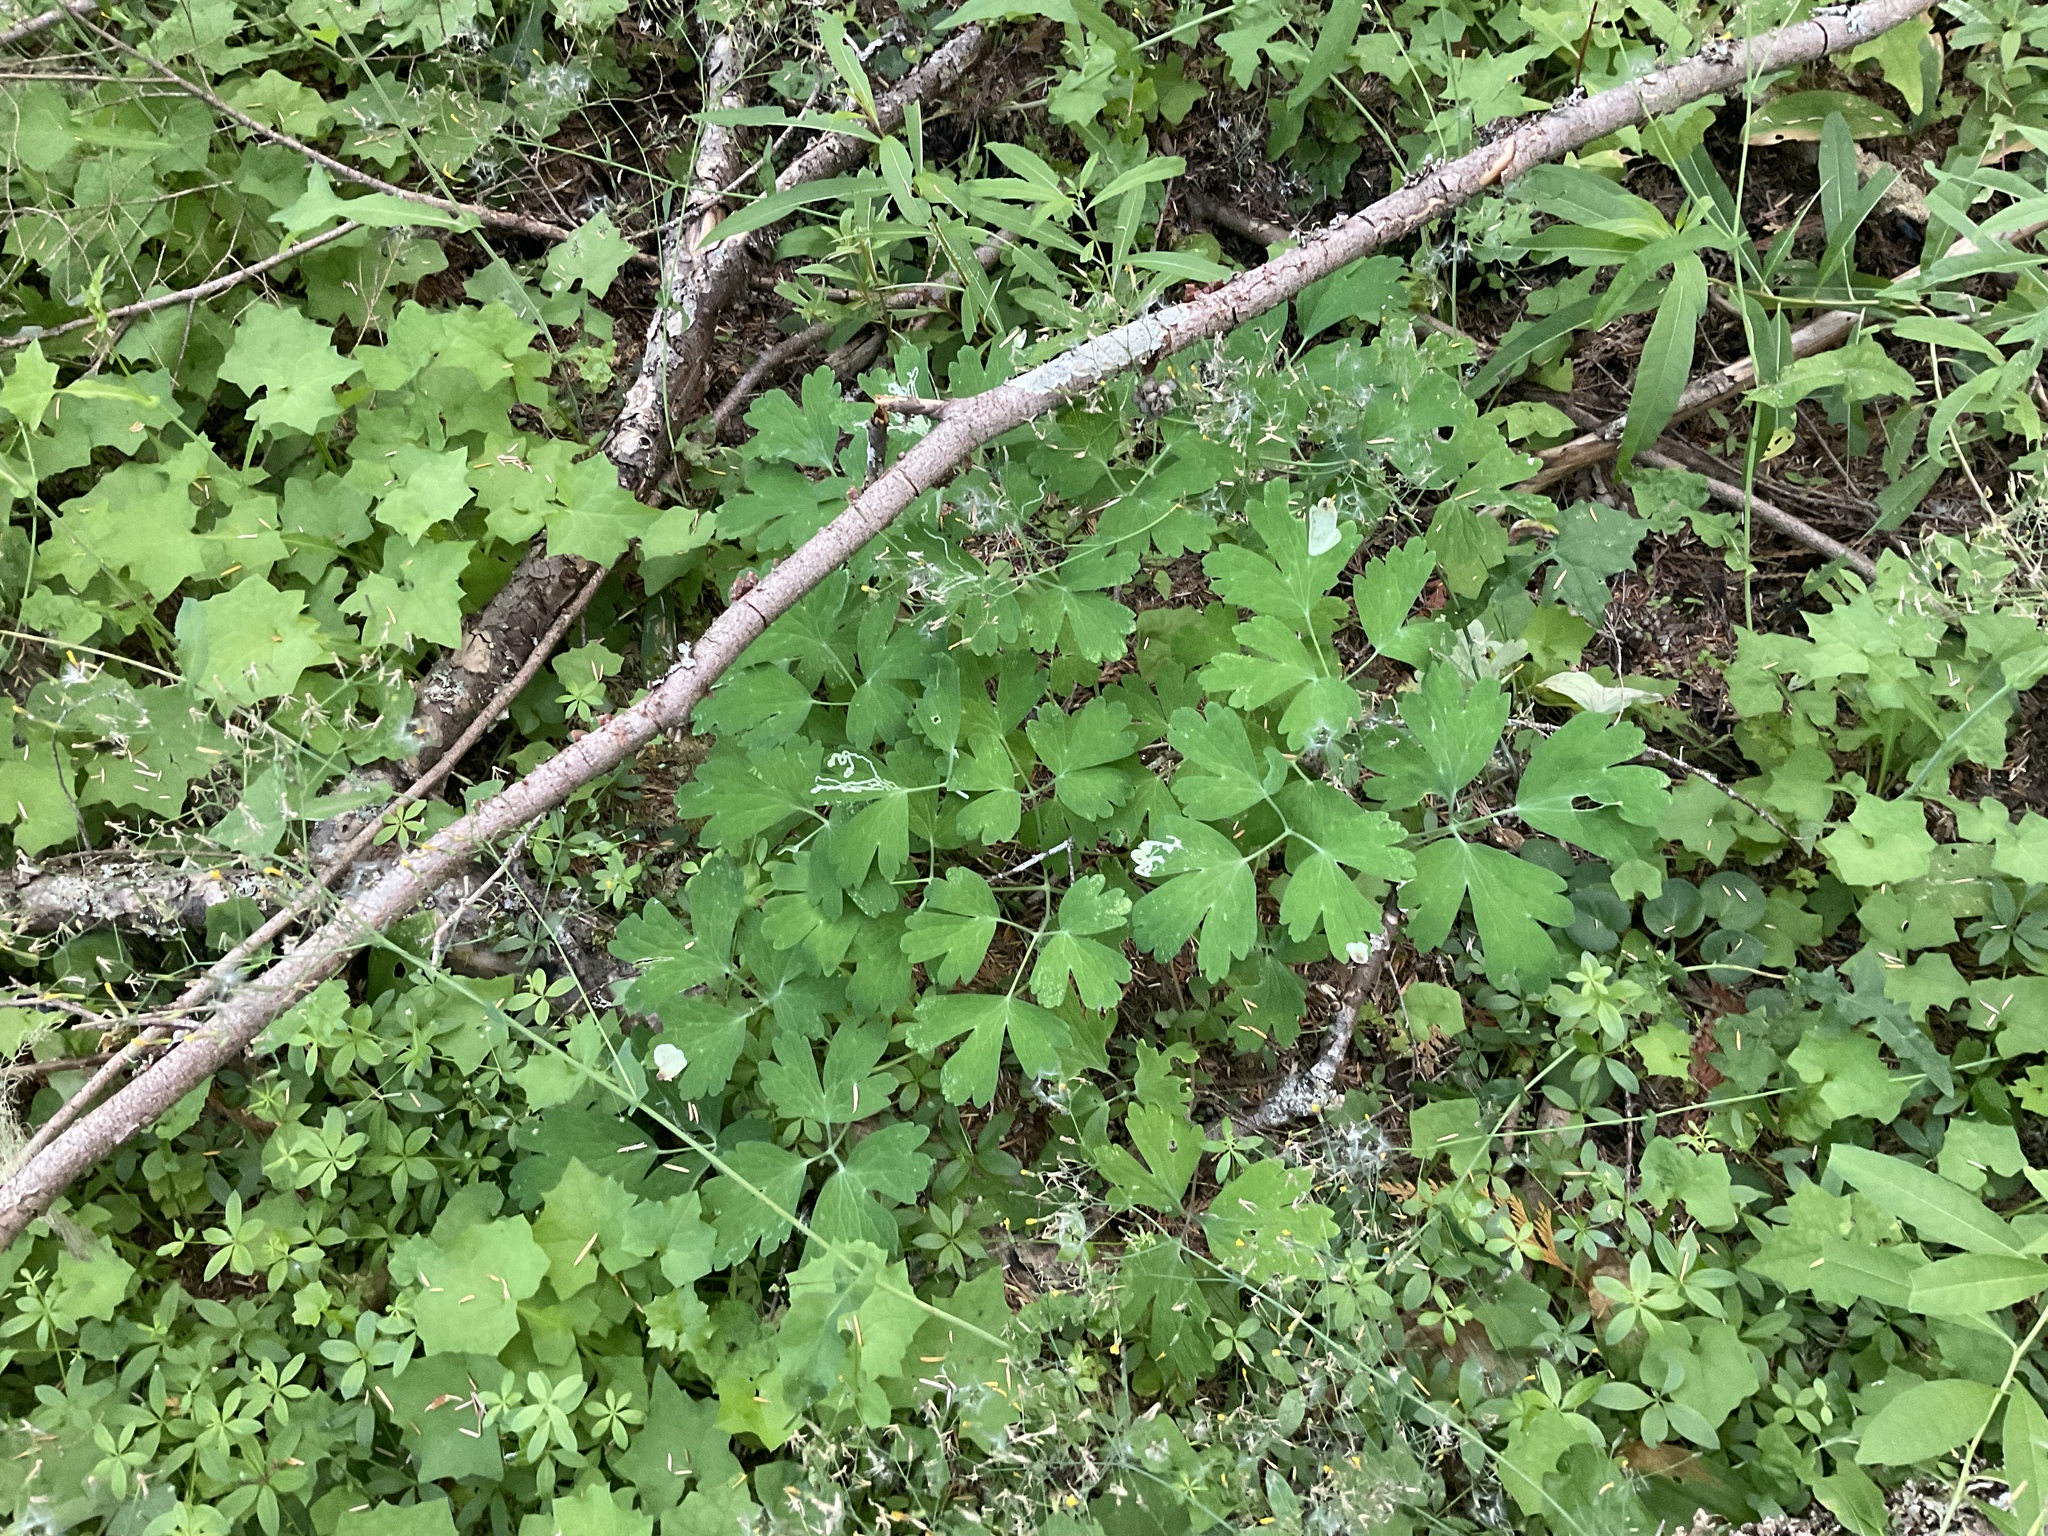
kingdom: Plantae
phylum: Tracheophyta
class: Magnoliopsida
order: Ranunculales
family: Ranunculaceae
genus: Aquilegia
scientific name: Aquilegia formosa
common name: Sitka columbine
